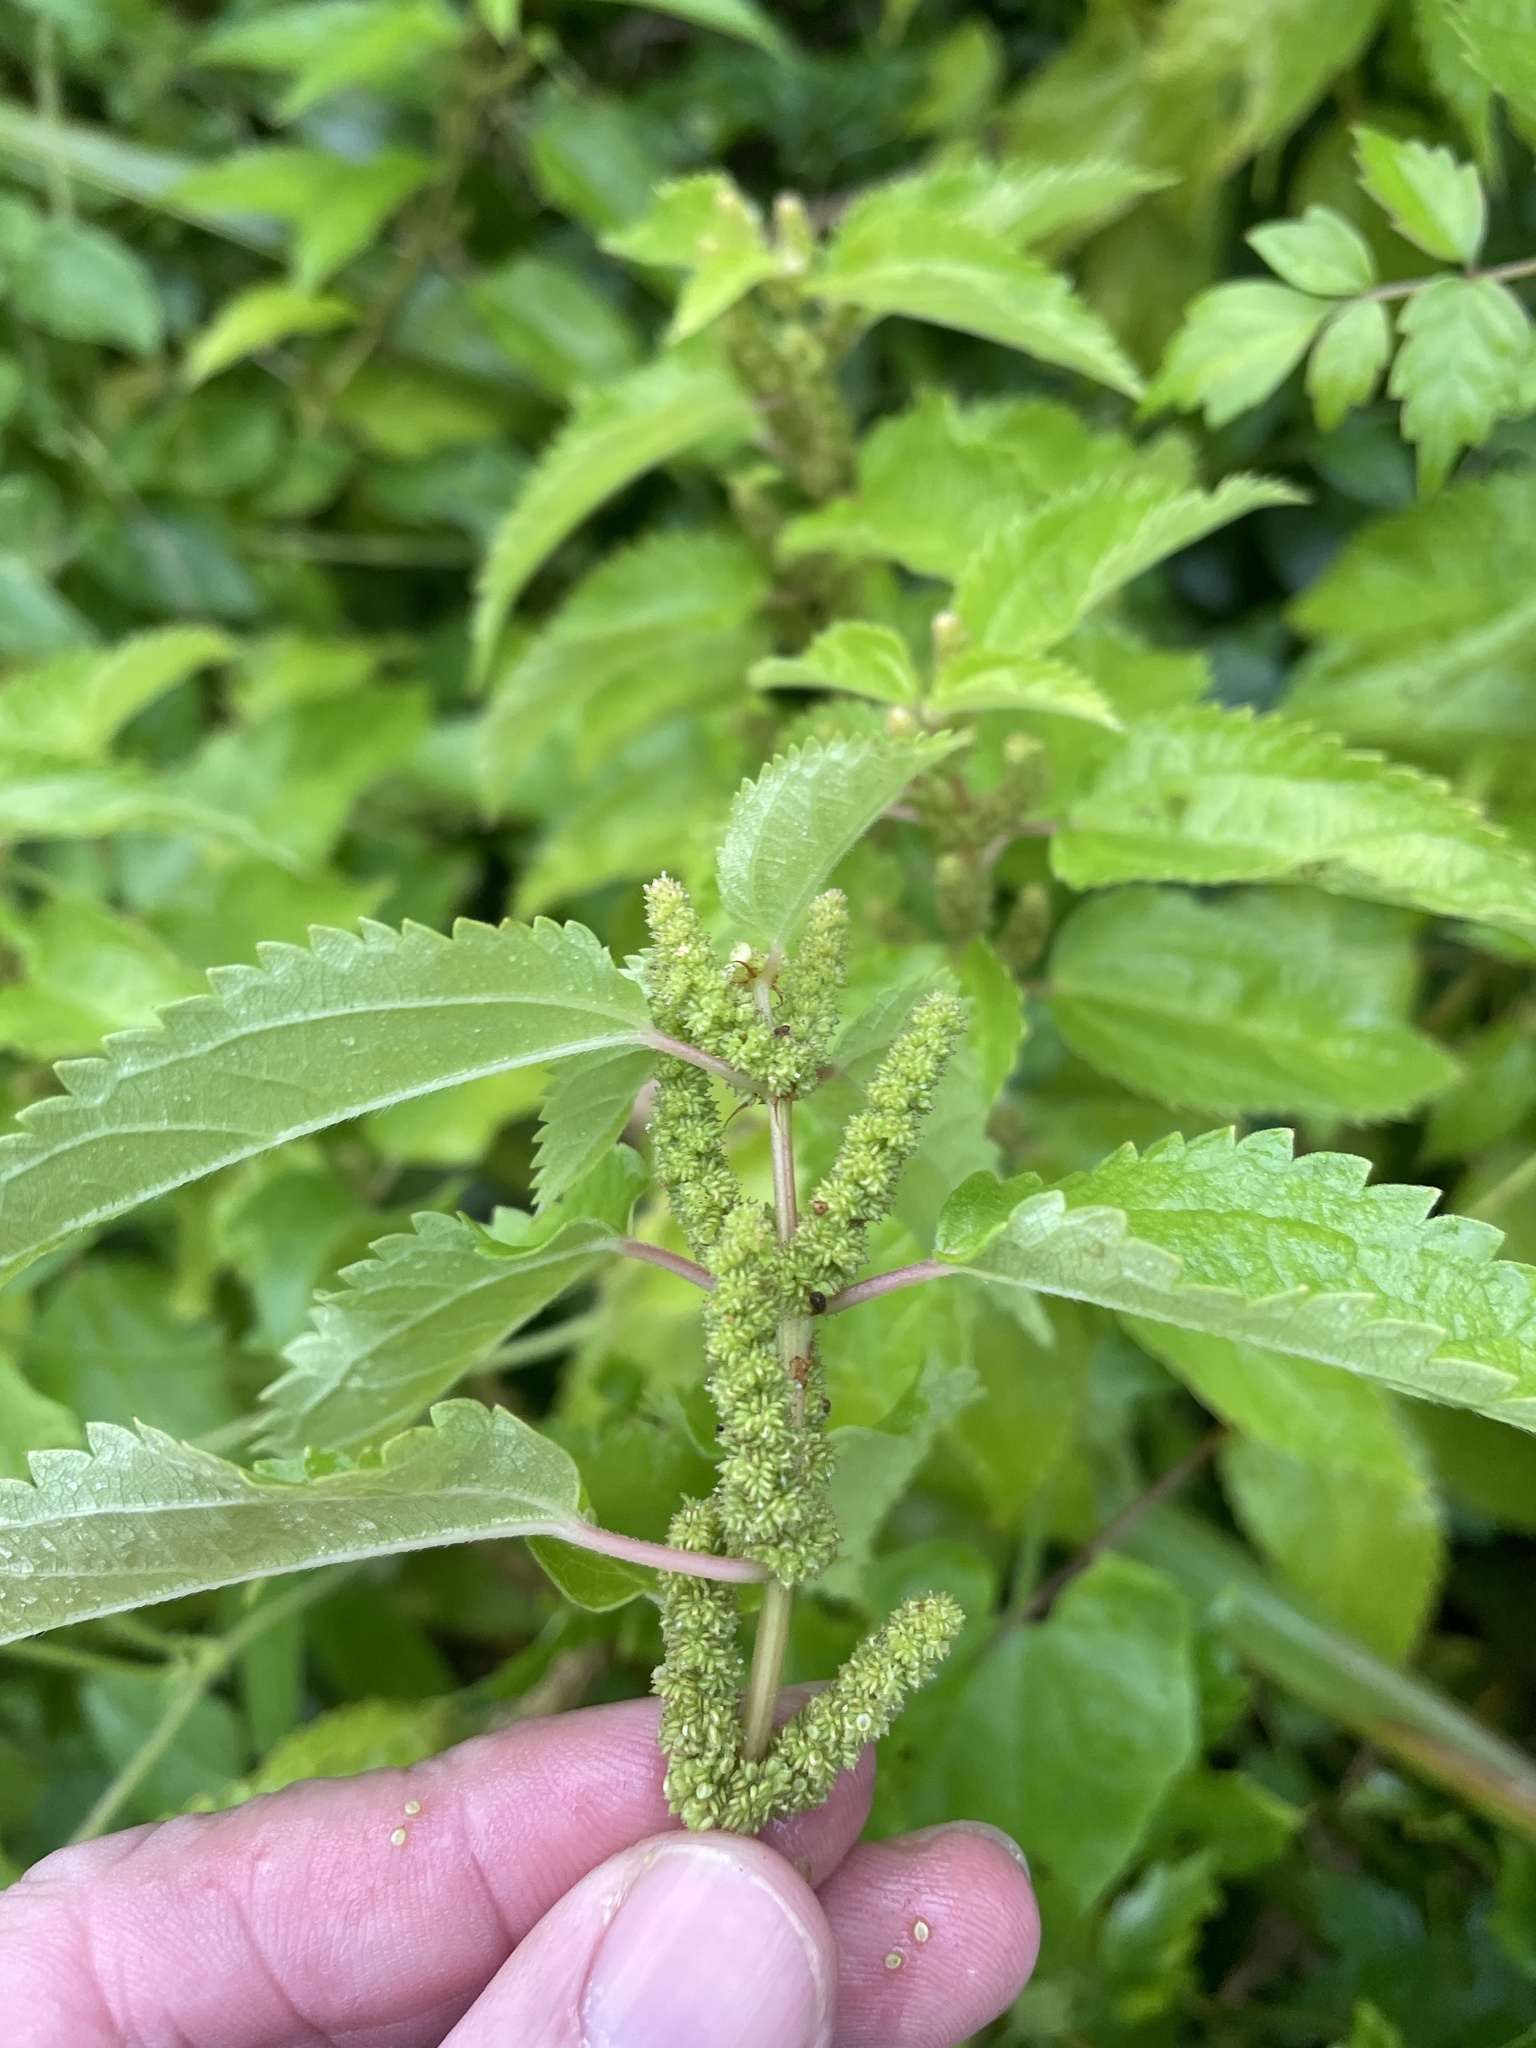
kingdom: Plantae
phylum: Tracheophyta
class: Magnoliopsida
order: Rosales
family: Urticaceae
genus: Boehmeria
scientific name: Boehmeria cylindrica
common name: Bog-hemp
